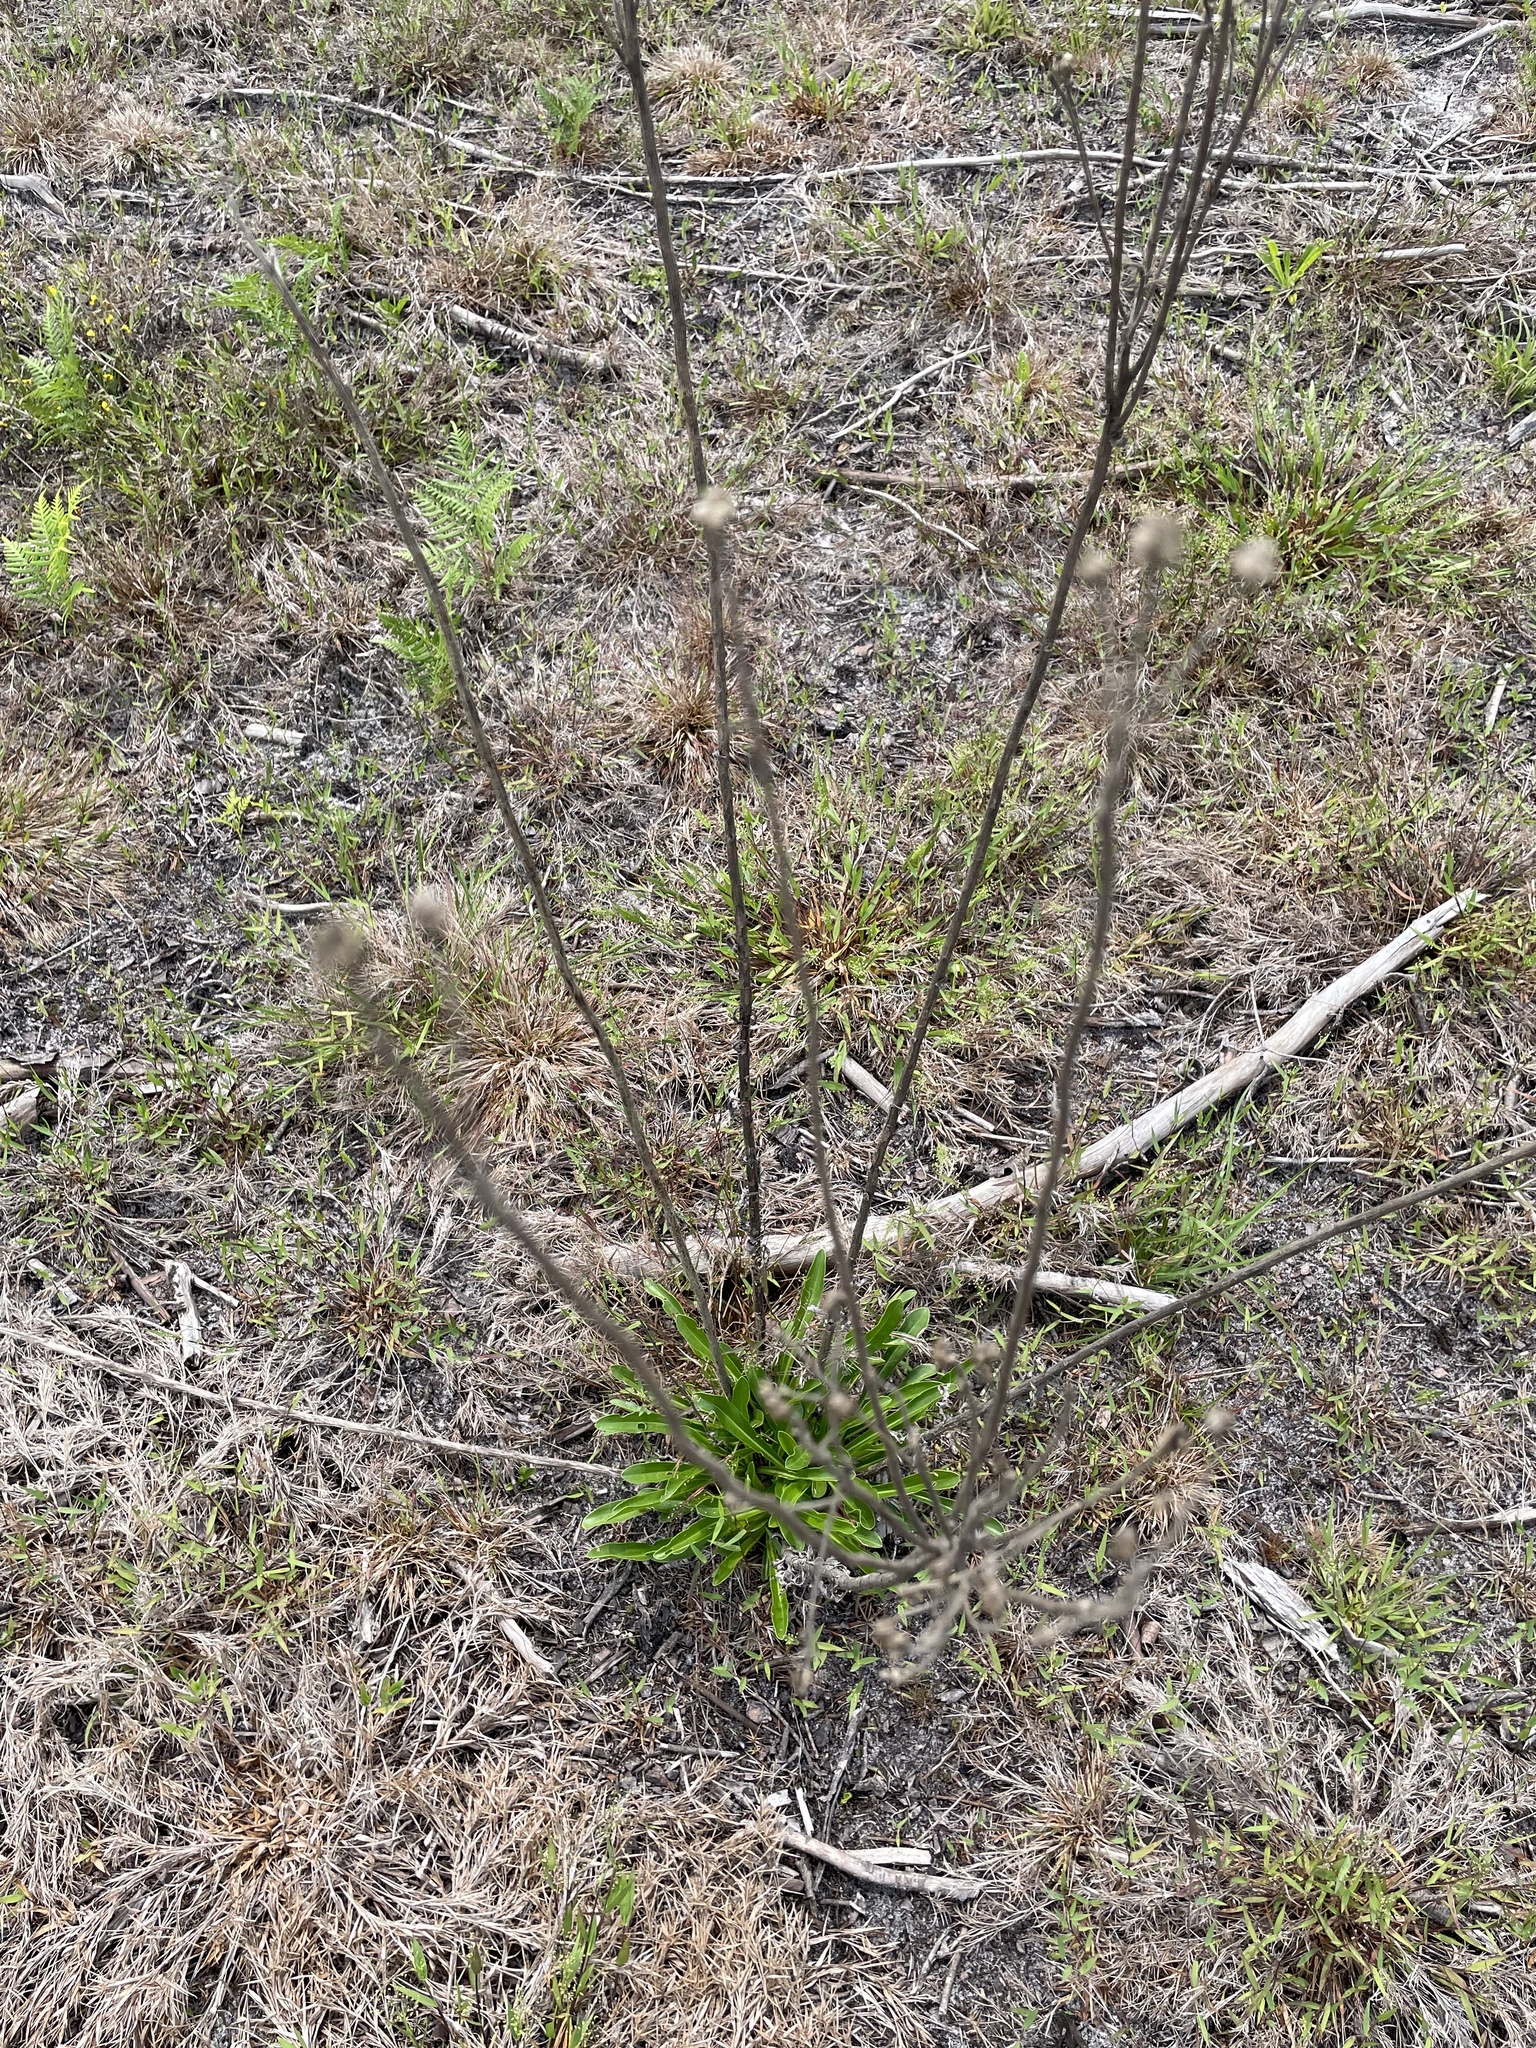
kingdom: Plantae
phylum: Tracheophyta
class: Magnoliopsida
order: Asterales
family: Asteraceae
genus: Carphephorus
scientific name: Carphephorus corymbosus
